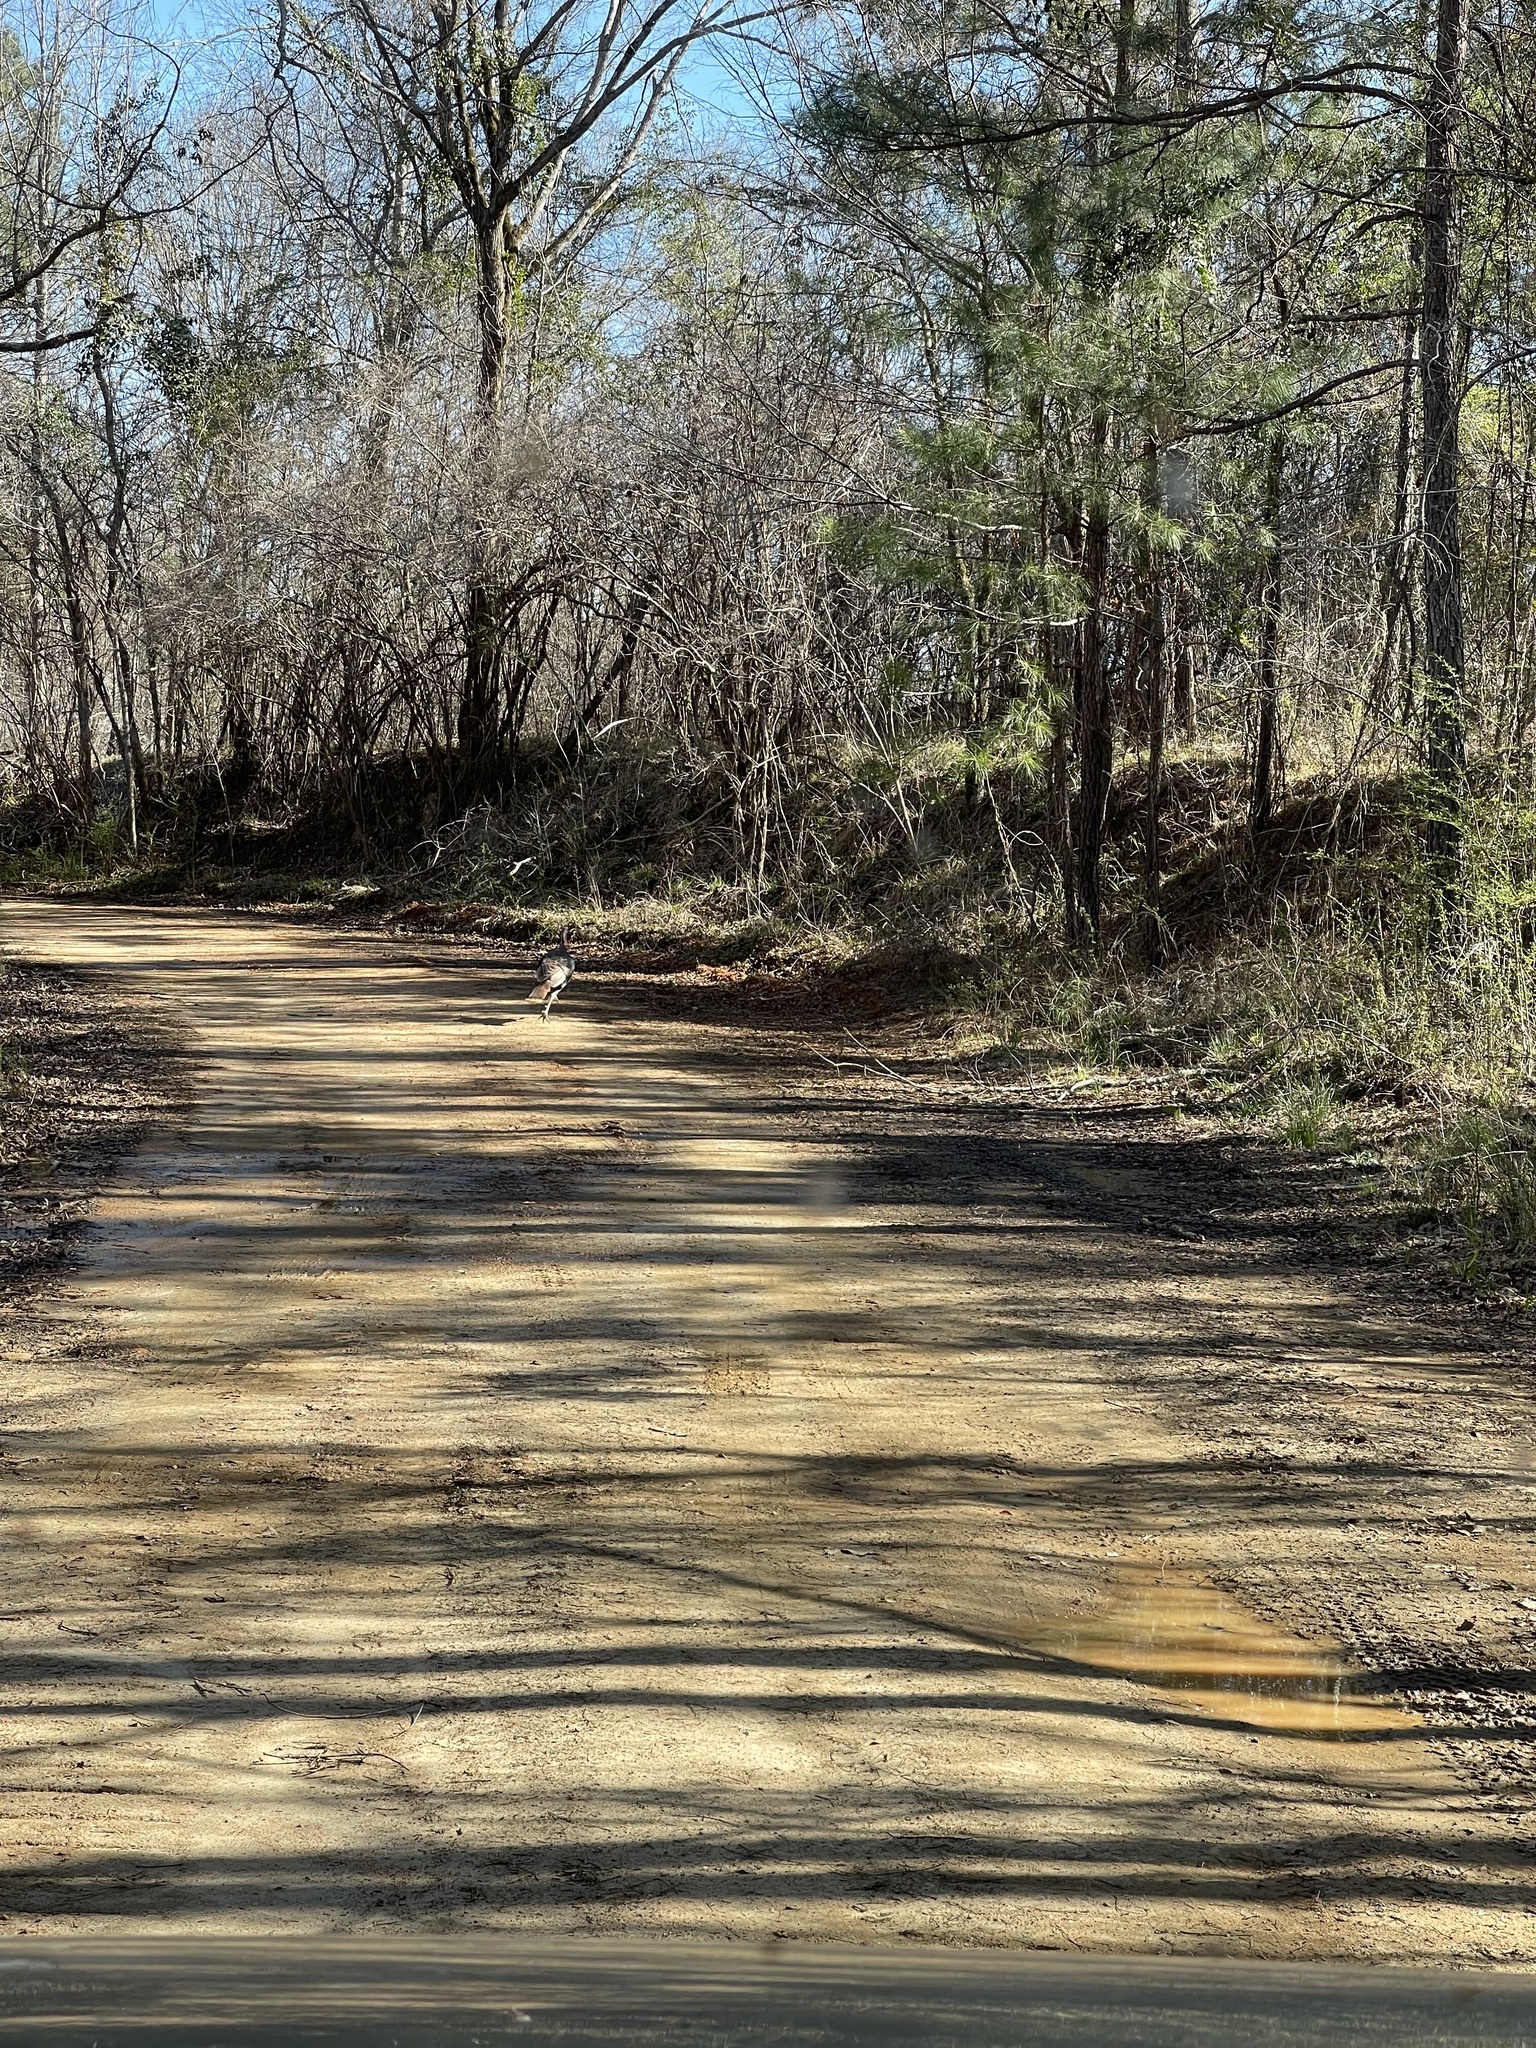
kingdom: Animalia
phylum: Chordata
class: Aves
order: Galliformes
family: Phasianidae
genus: Meleagris
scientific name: Meleagris gallopavo
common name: Wild turkey
